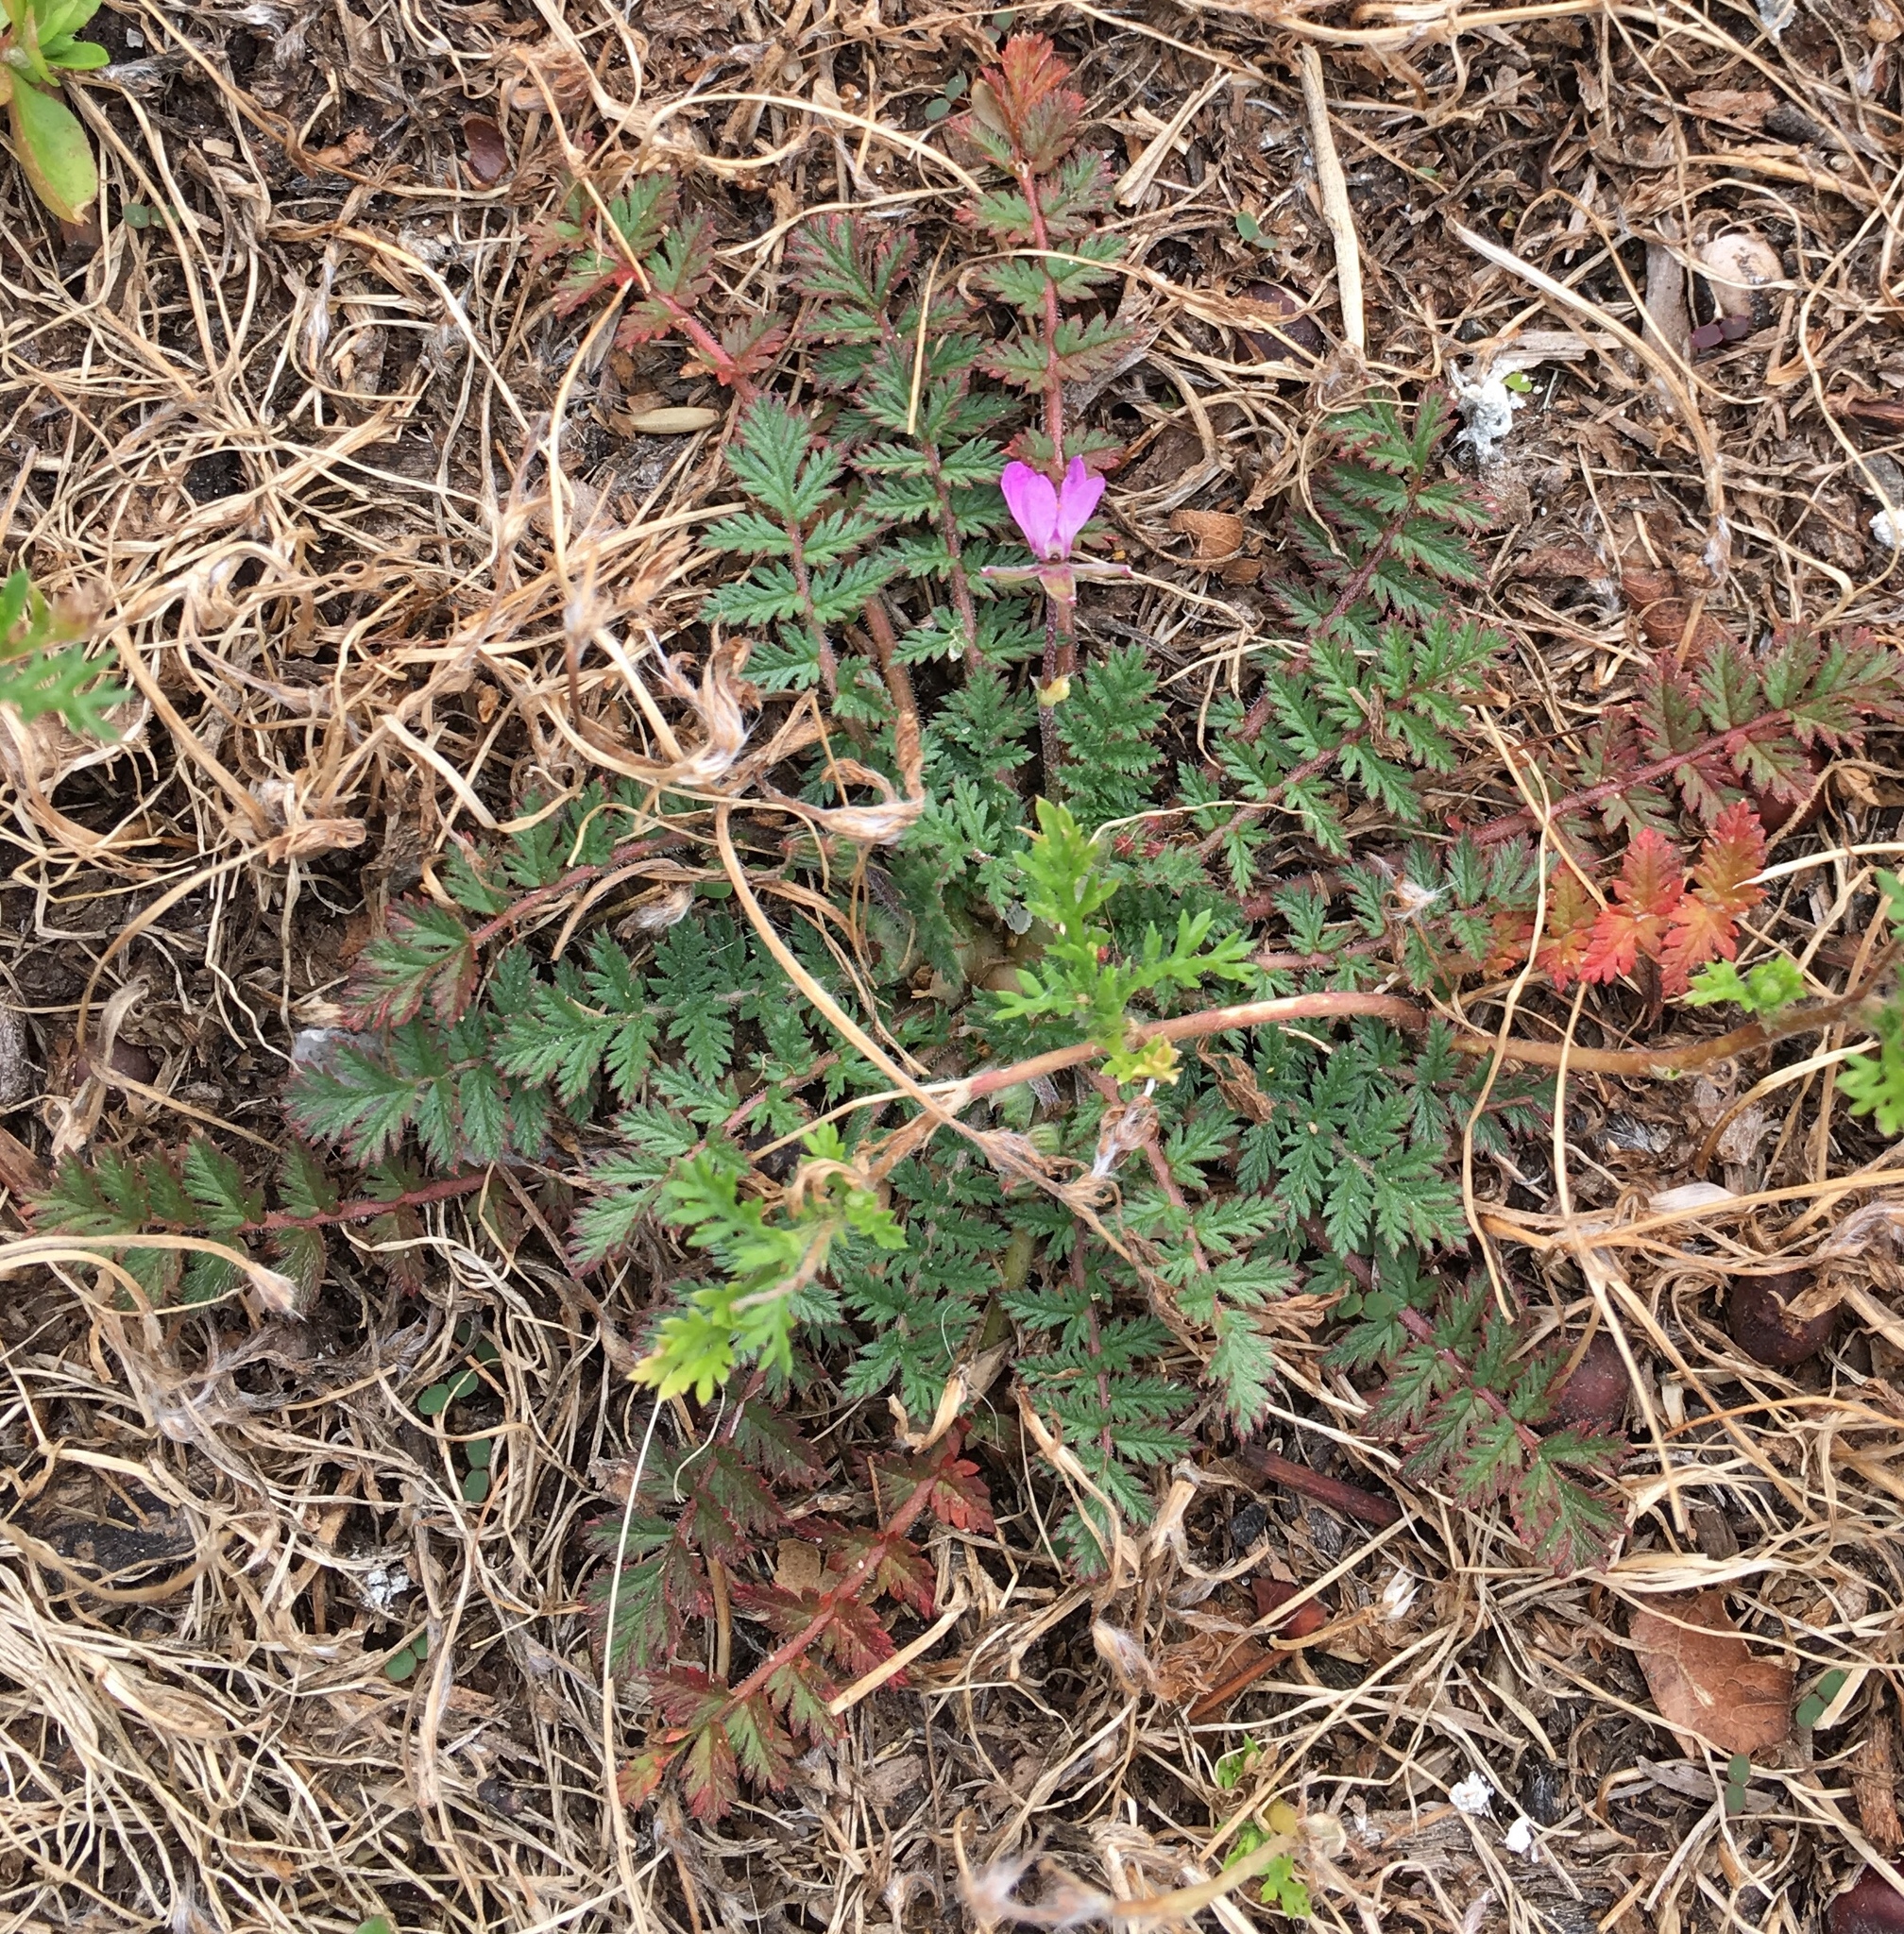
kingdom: Plantae
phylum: Tracheophyta
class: Magnoliopsida
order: Geraniales
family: Geraniaceae
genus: Erodium
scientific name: Erodium cicutarium
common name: Common stork's-bill
